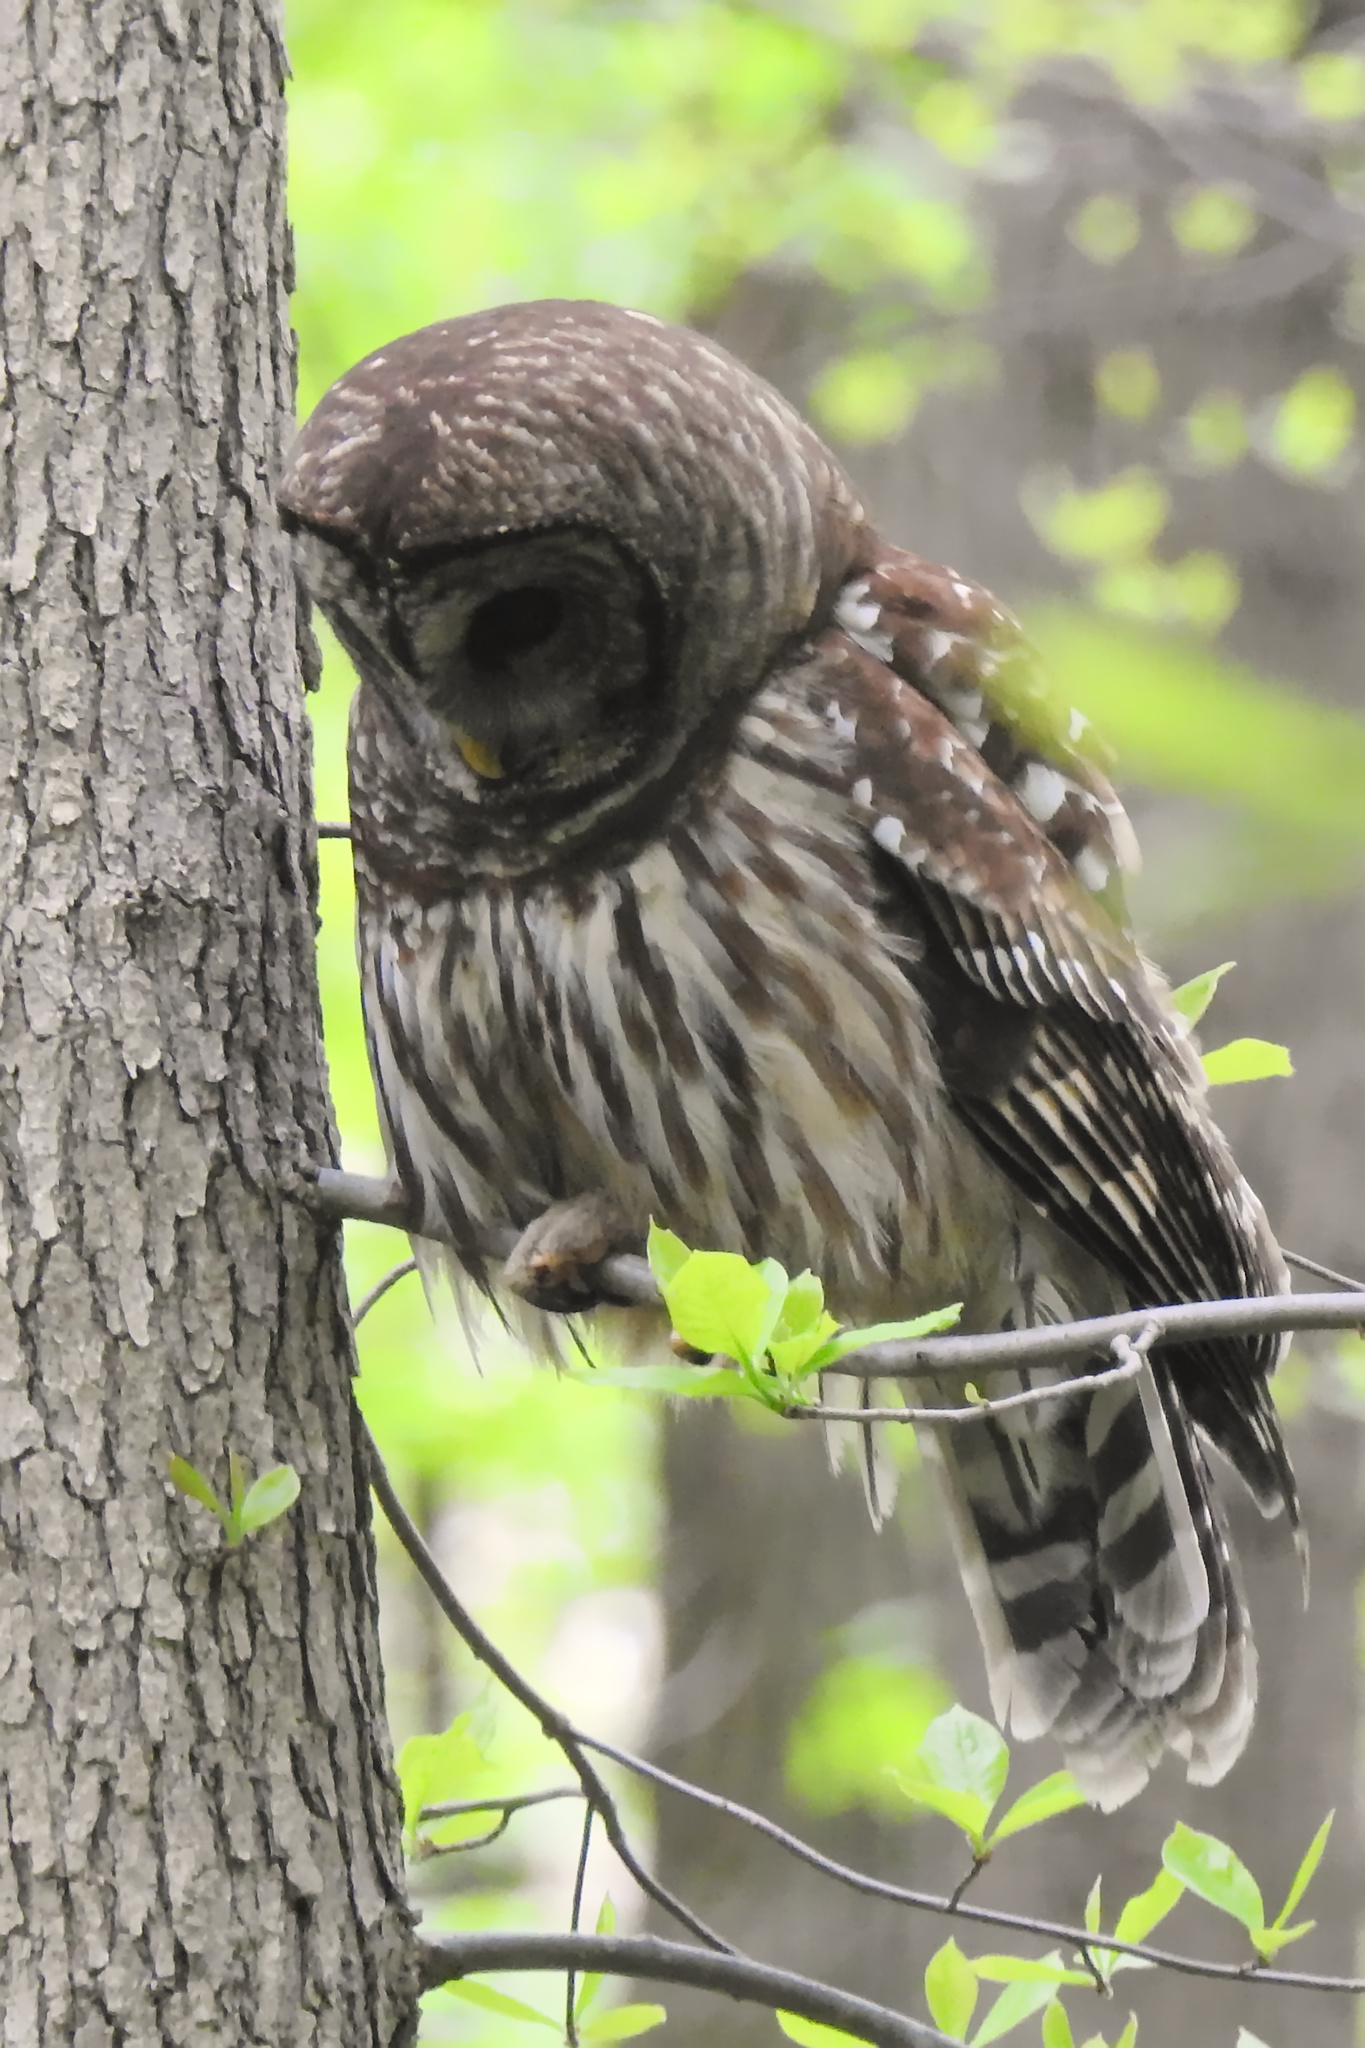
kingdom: Animalia
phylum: Chordata
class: Aves
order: Strigiformes
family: Strigidae
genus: Strix
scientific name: Strix varia
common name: Barred owl
